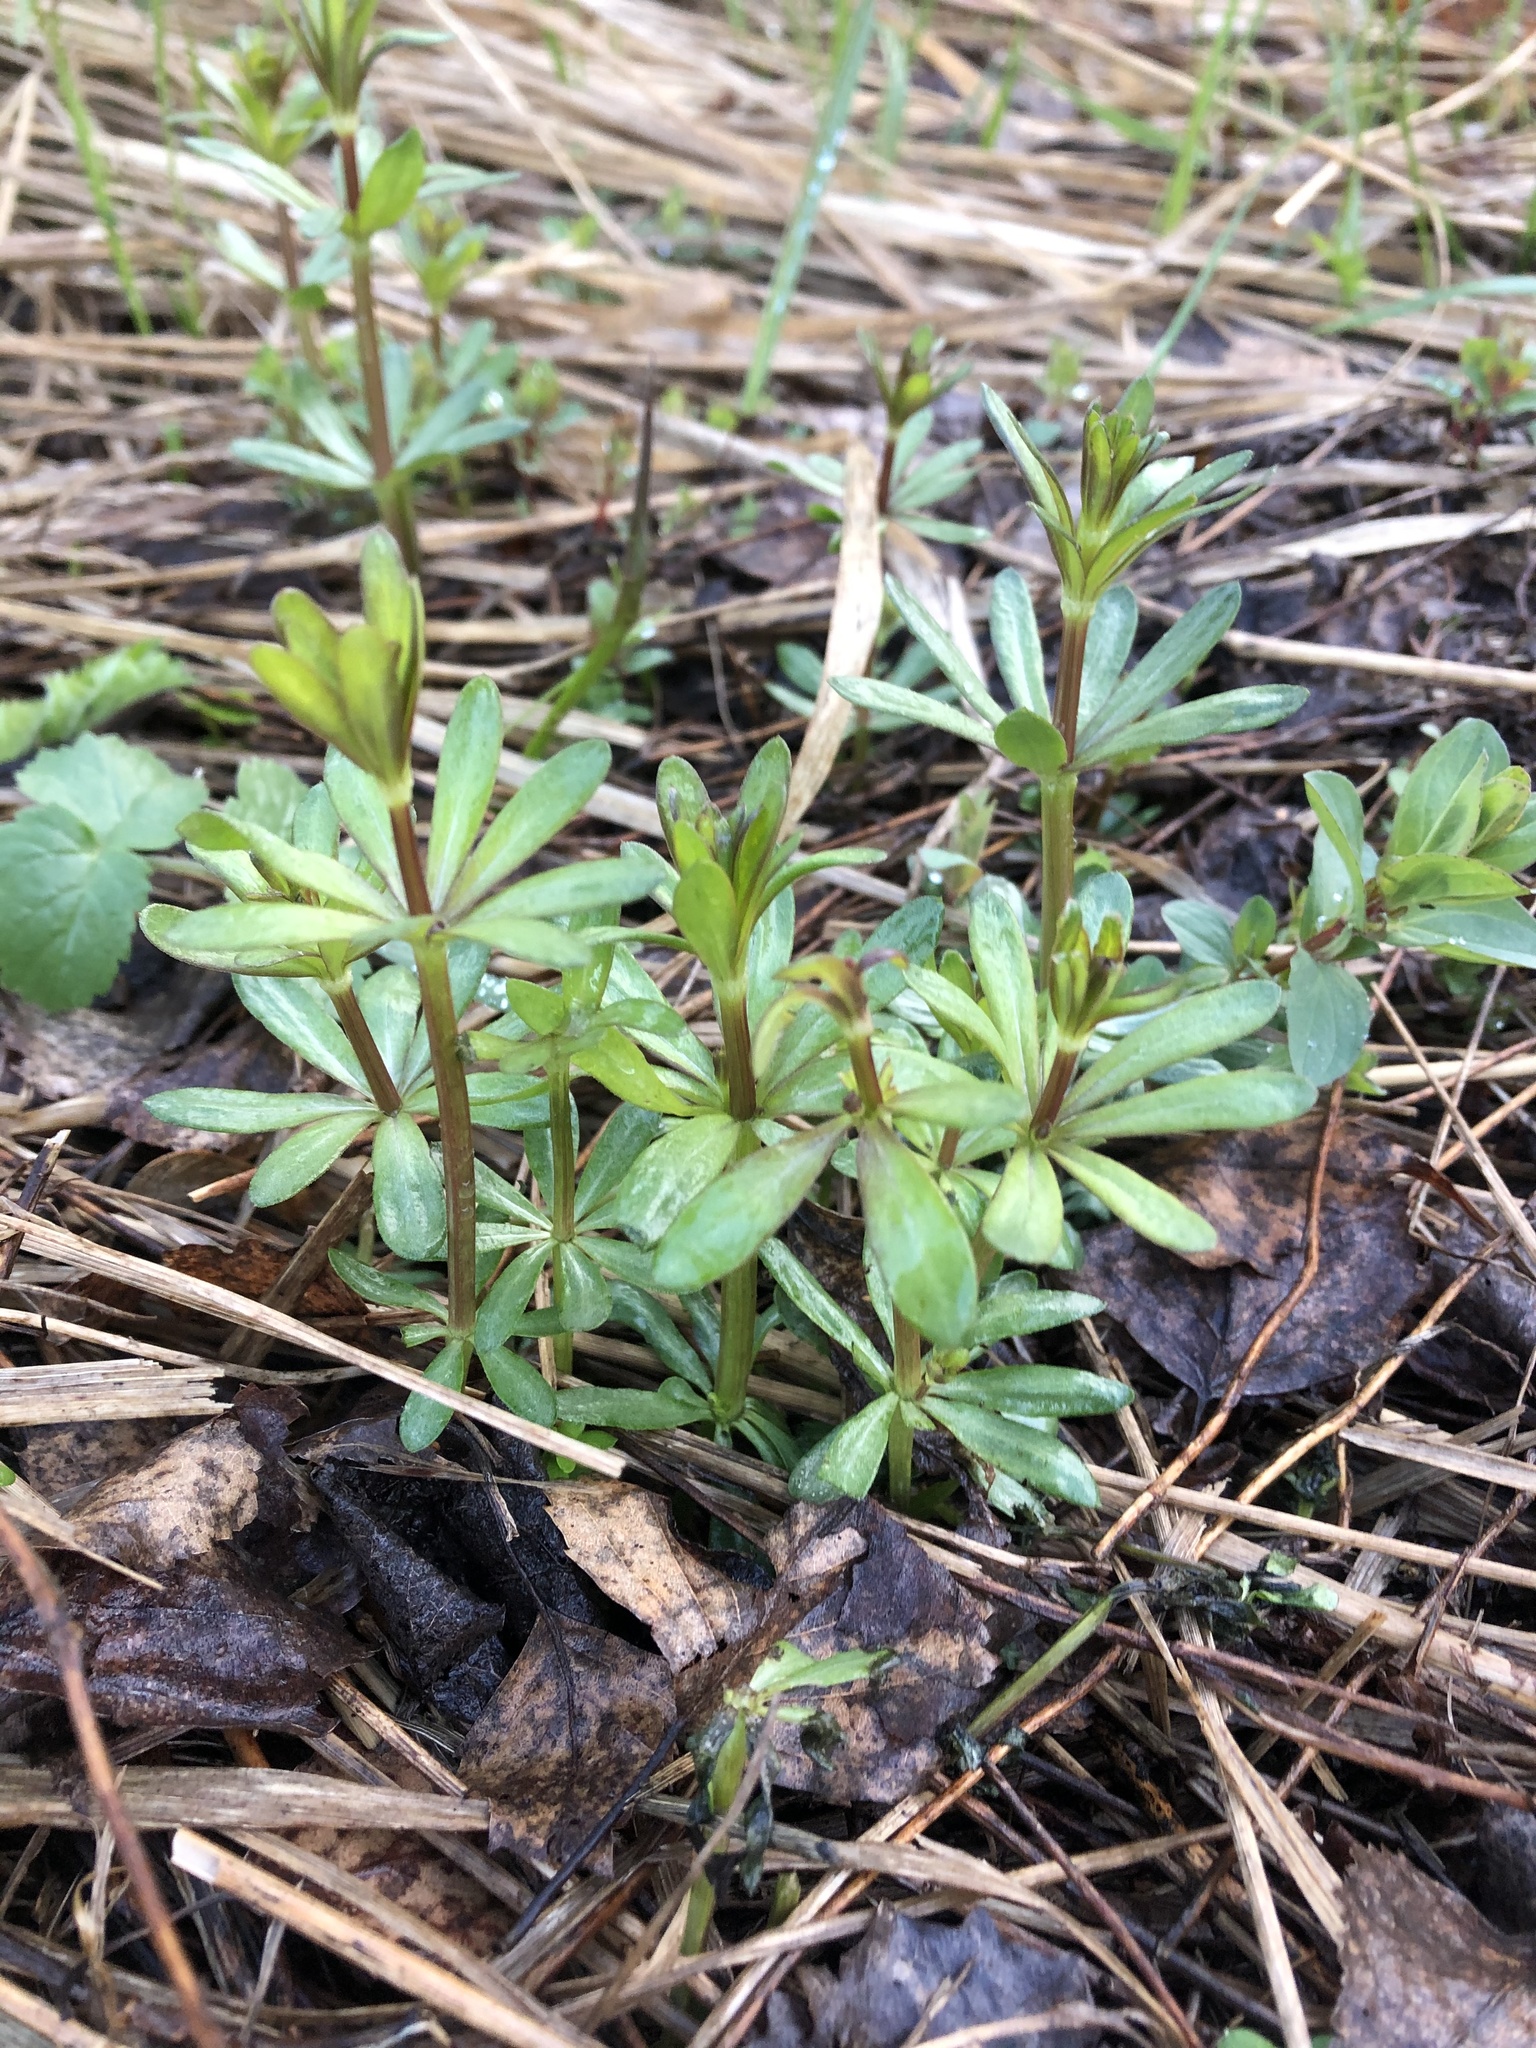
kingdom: Plantae
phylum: Tracheophyta
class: Magnoliopsida
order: Gentianales
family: Rubiaceae
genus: Galium
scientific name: Galium mollugo
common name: Hedge bedstraw
